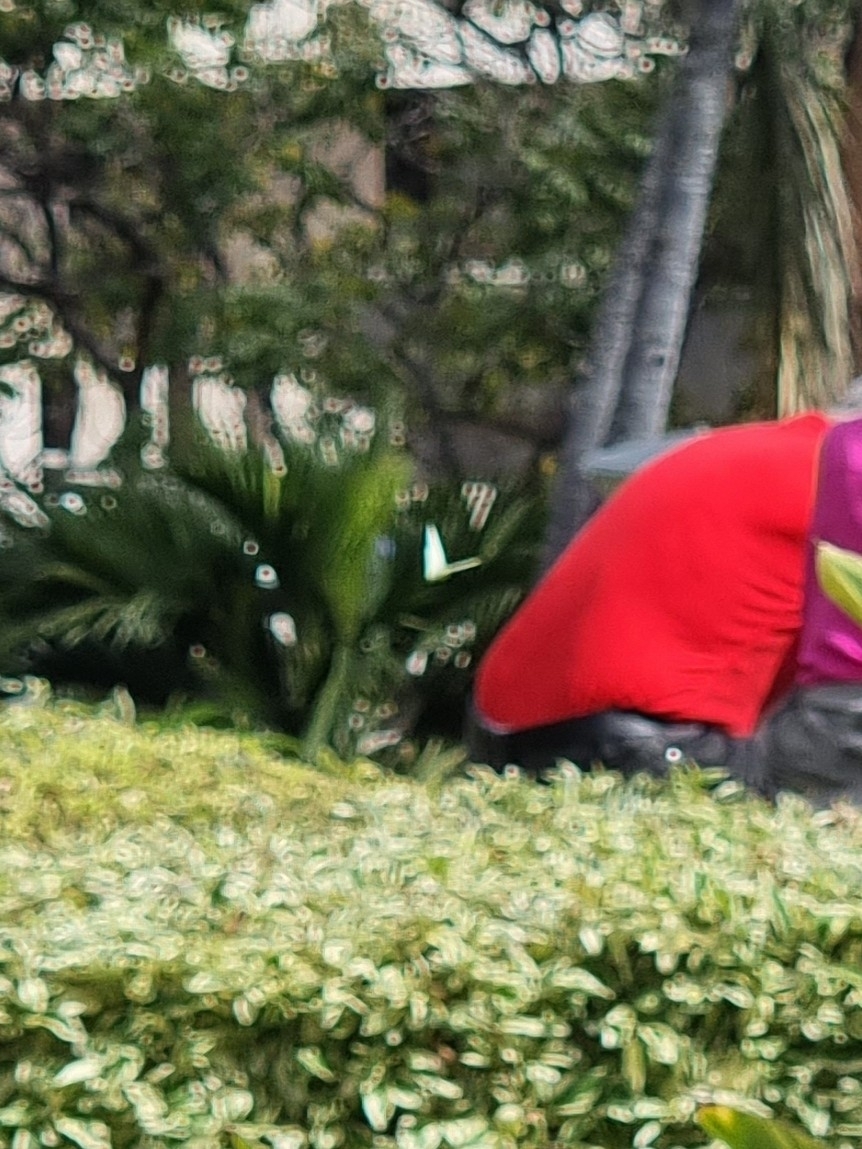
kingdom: Animalia
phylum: Arthropoda
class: Insecta
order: Lepidoptera
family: Pieridae
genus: Pieris
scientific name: Pieris rapae
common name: Small white
